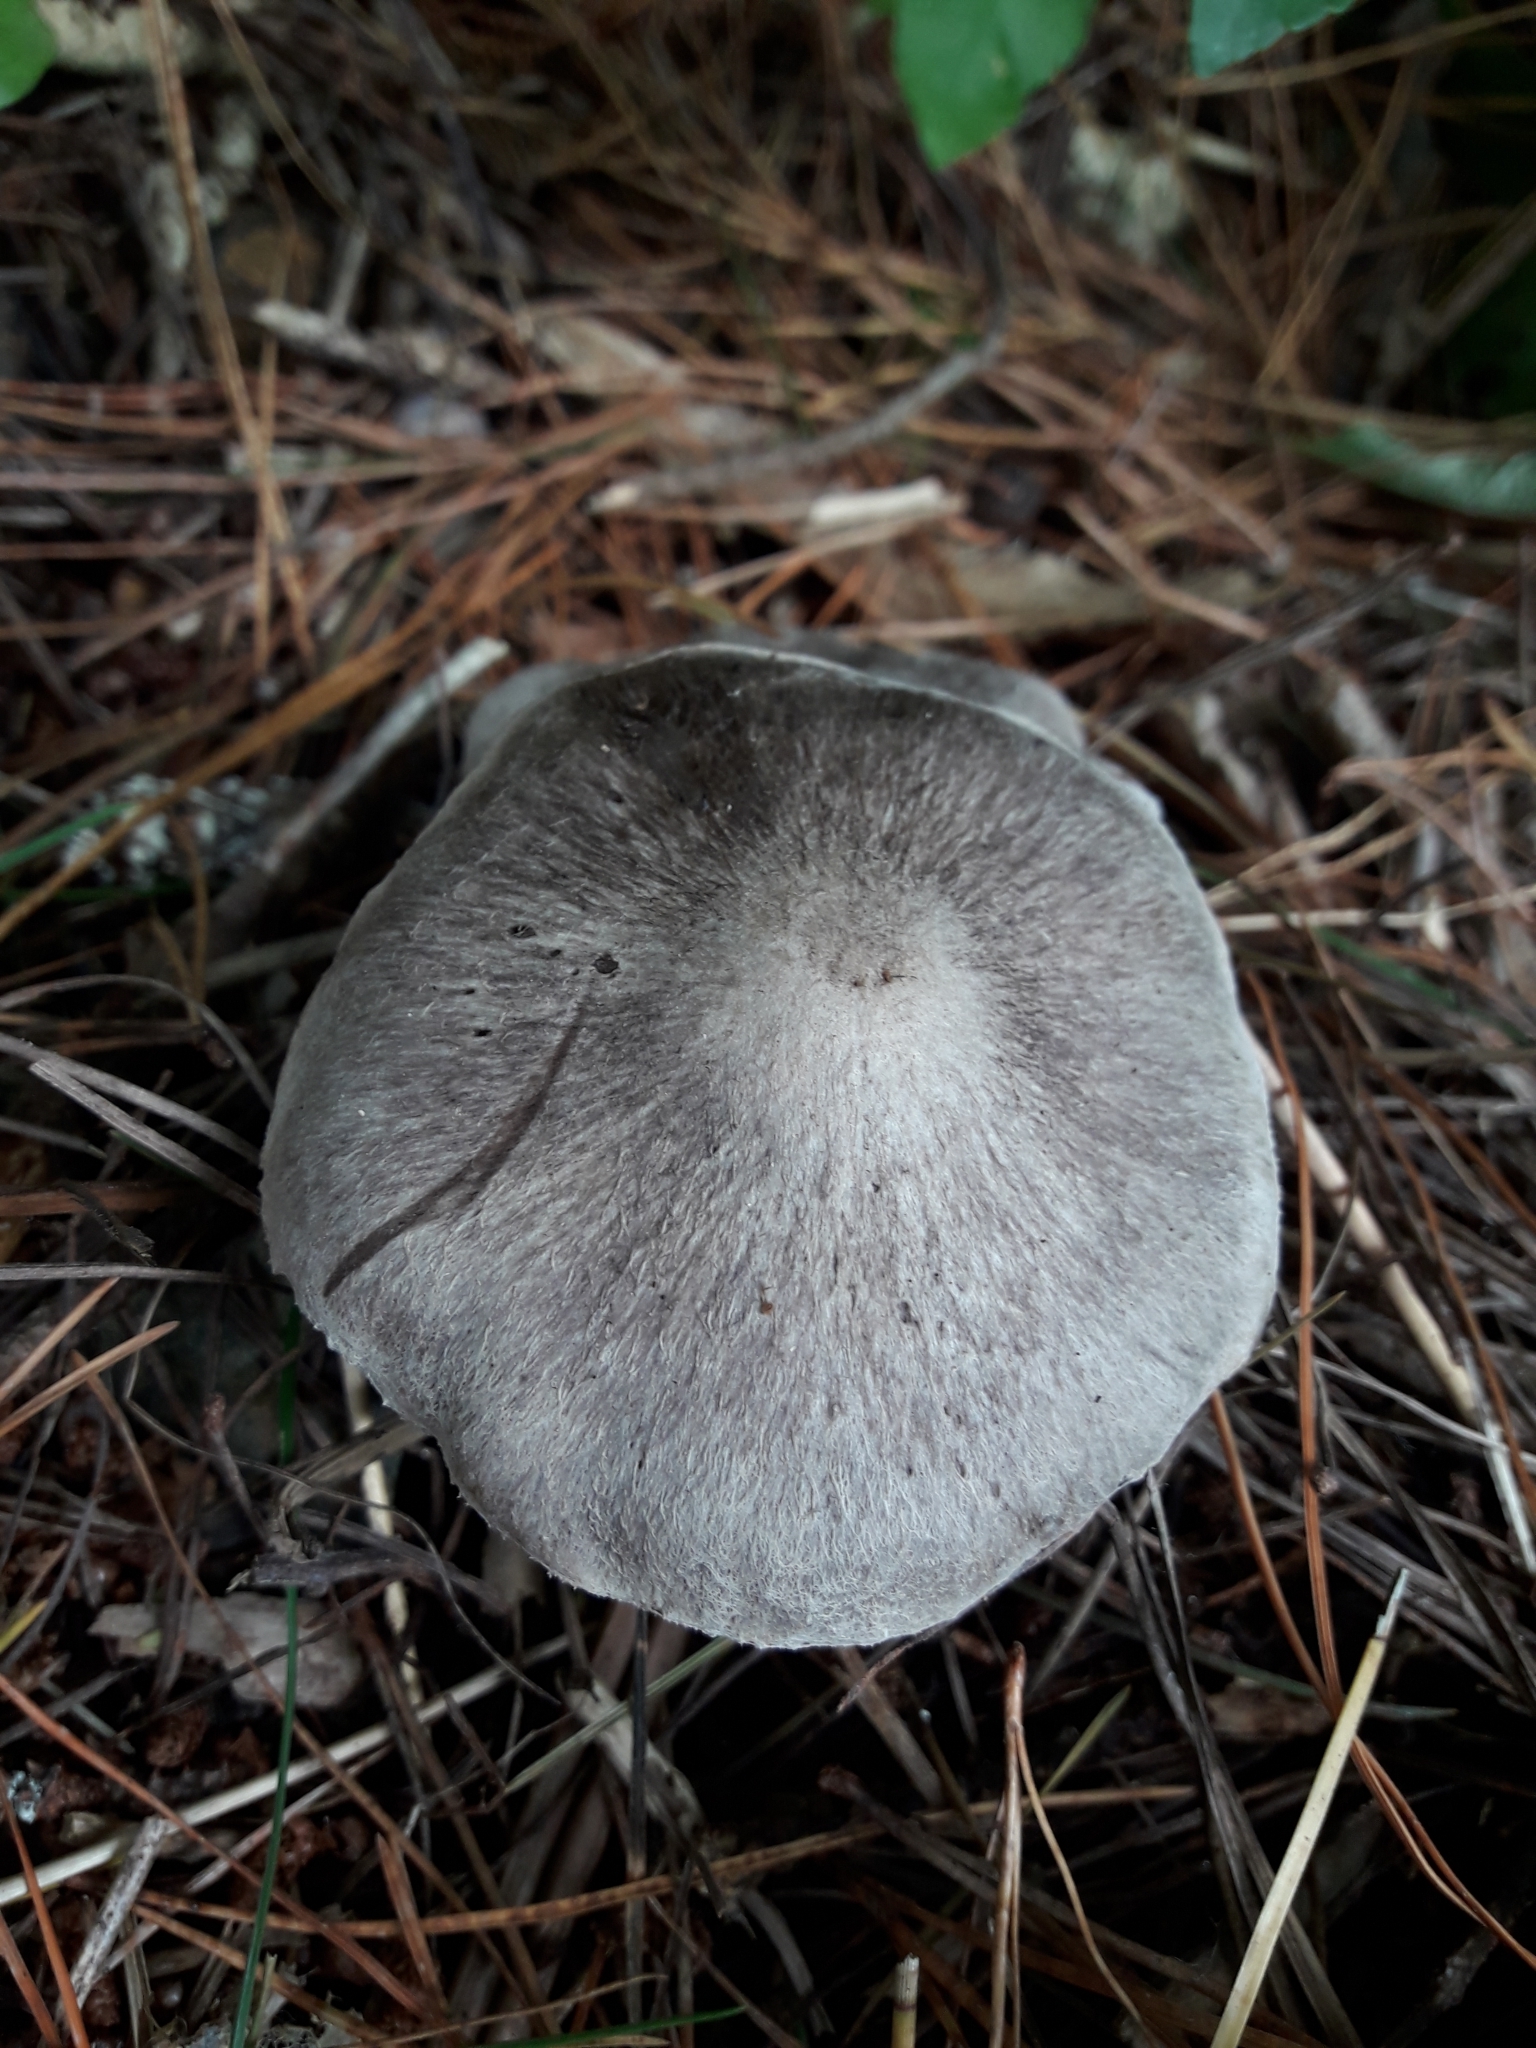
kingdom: Fungi
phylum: Basidiomycota
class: Agaricomycetes
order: Agaricales
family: Tricholomataceae
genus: Tricholoma
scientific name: Tricholoma terreum
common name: Grey knight
